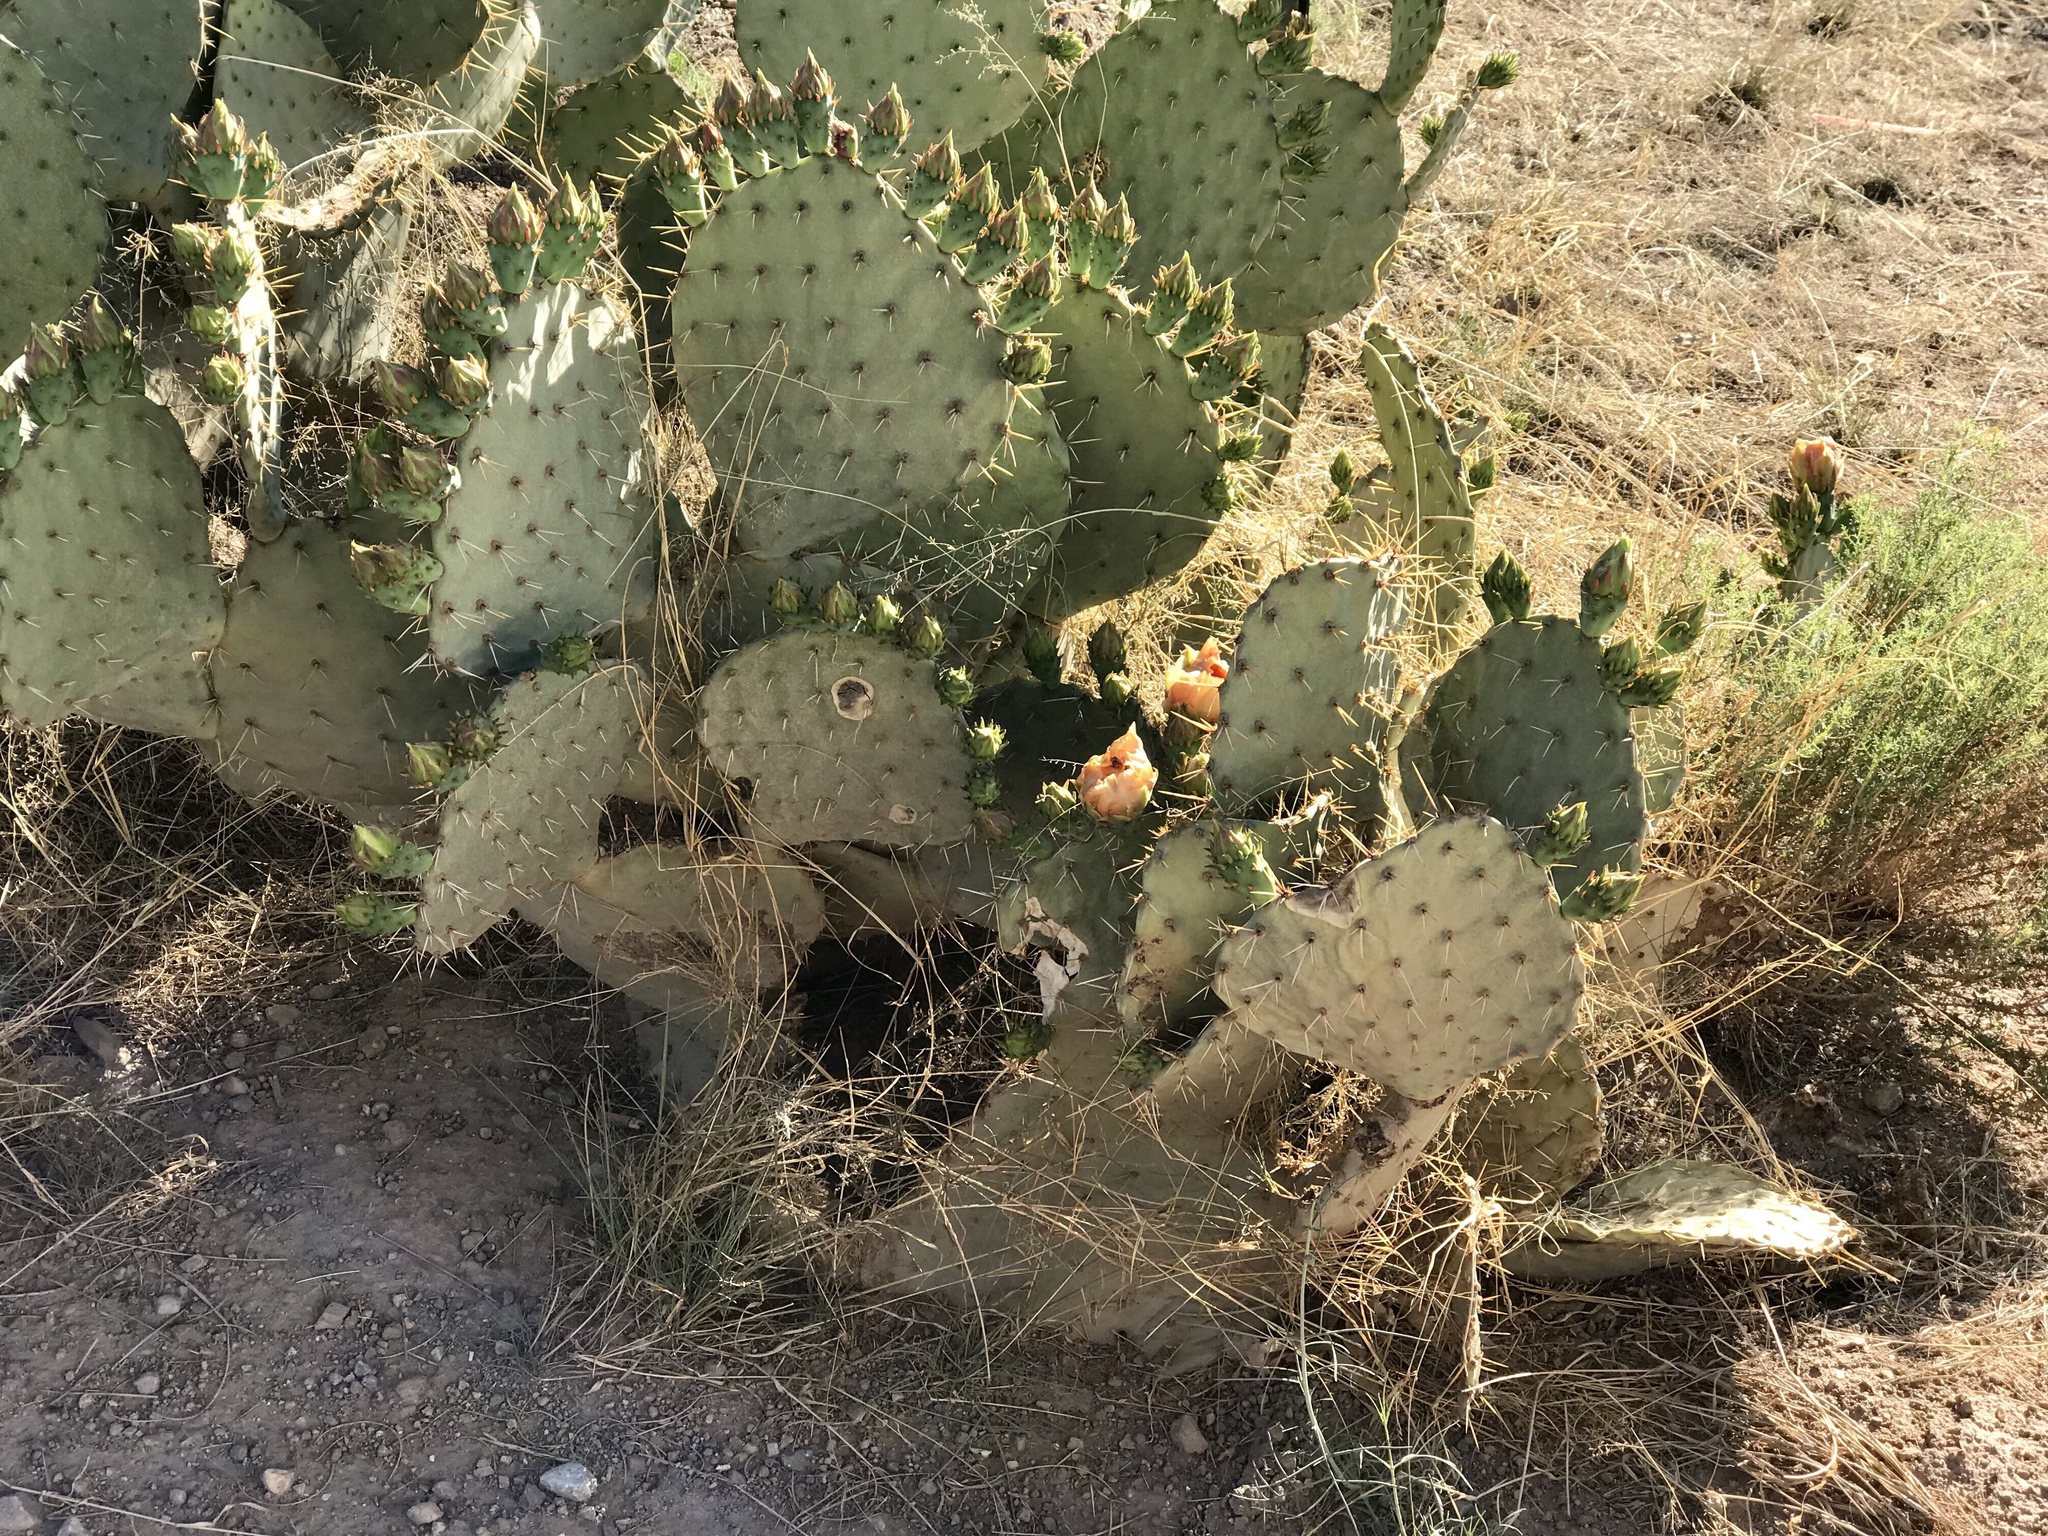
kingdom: Plantae
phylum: Tracheophyta
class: Magnoliopsida
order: Caryophyllales
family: Cactaceae
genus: Opuntia
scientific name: Opuntia engelmannii
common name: Cactus-apple
